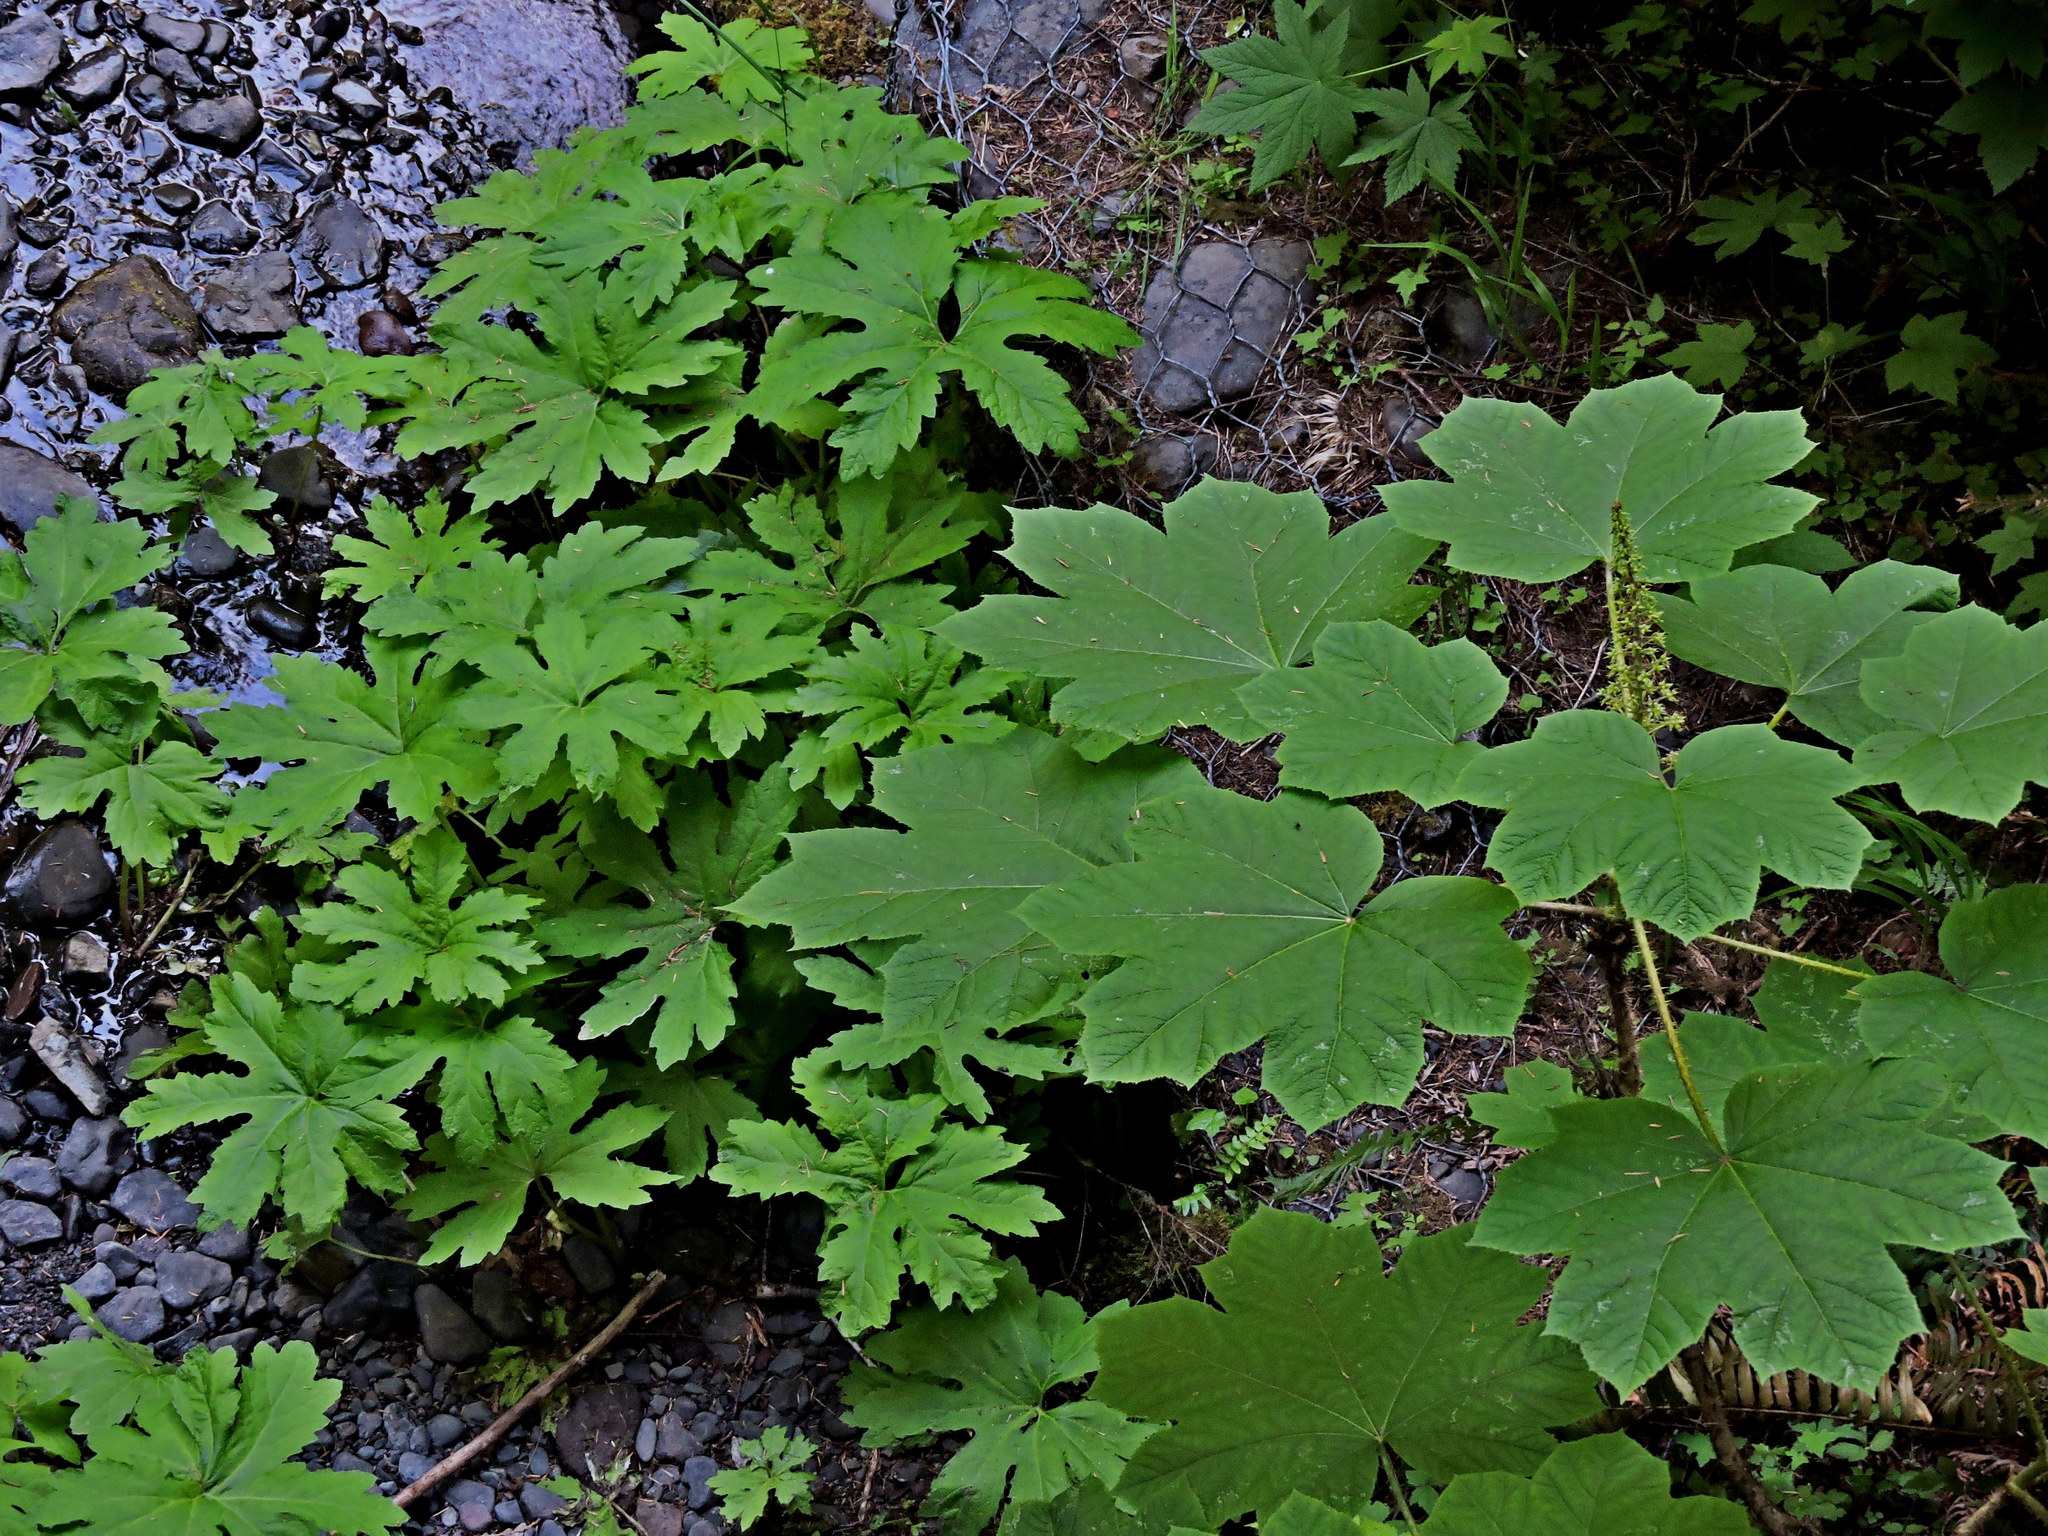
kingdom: Plantae
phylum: Tracheophyta
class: Magnoliopsida
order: Apiales
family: Araliaceae
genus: Oplopanax
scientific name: Oplopanax horridus
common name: Devil's walking-stick
